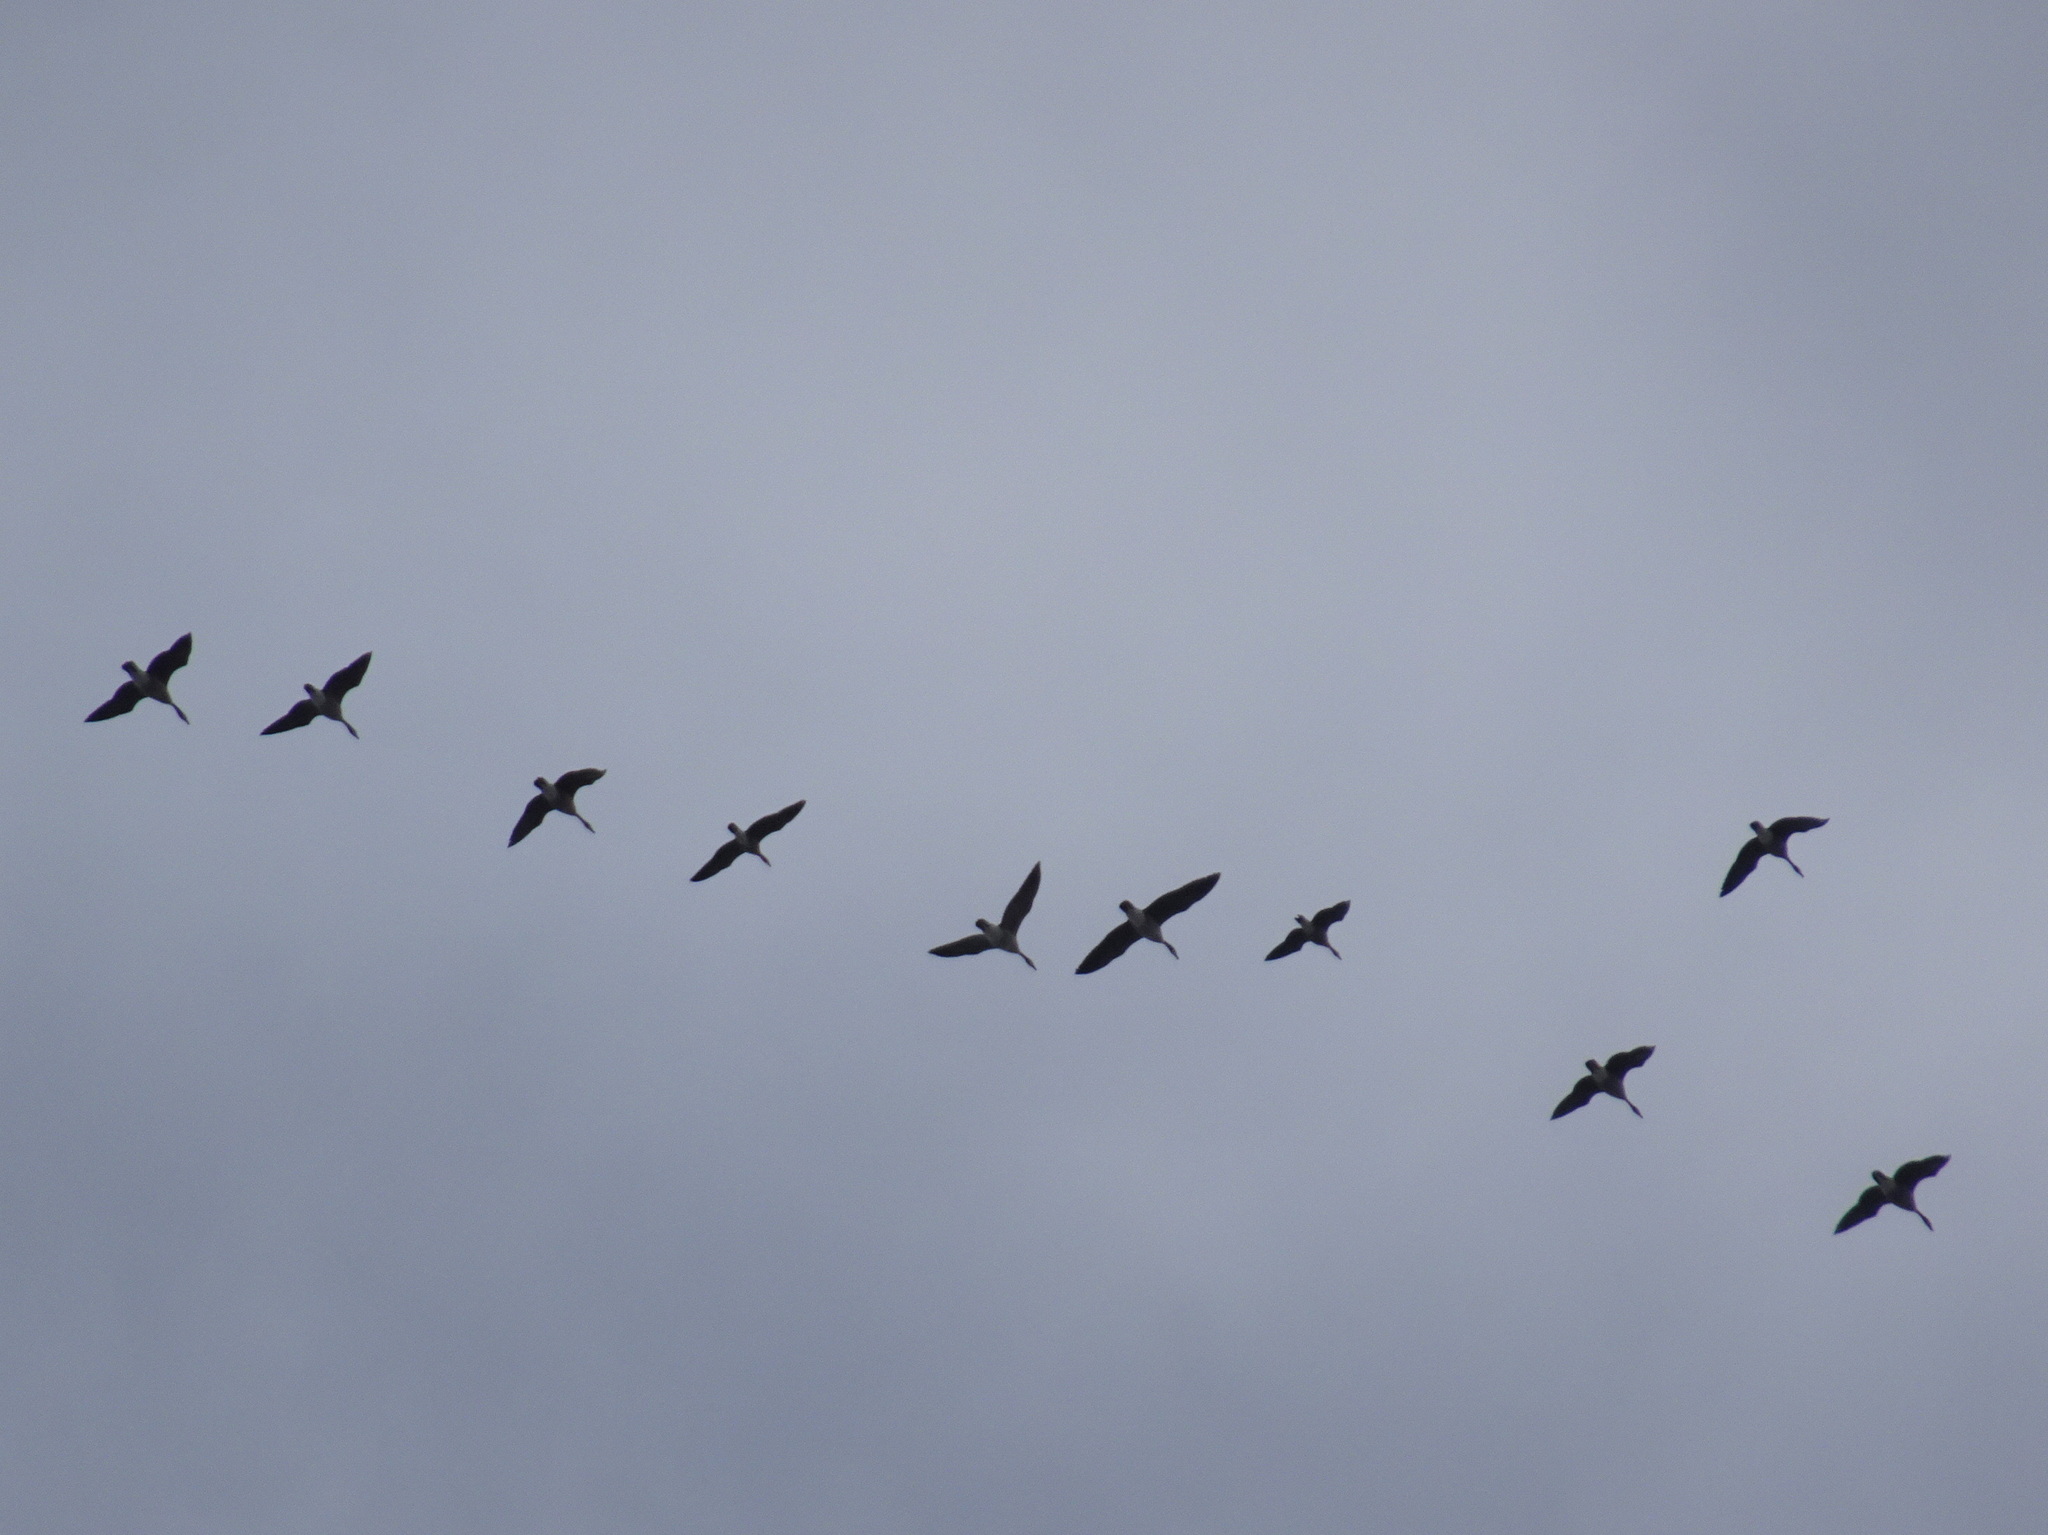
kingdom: Animalia
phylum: Chordata
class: Aves
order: Anseriformes
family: Anatidae
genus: Branta
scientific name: Branta canadensis
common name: Canada goose
